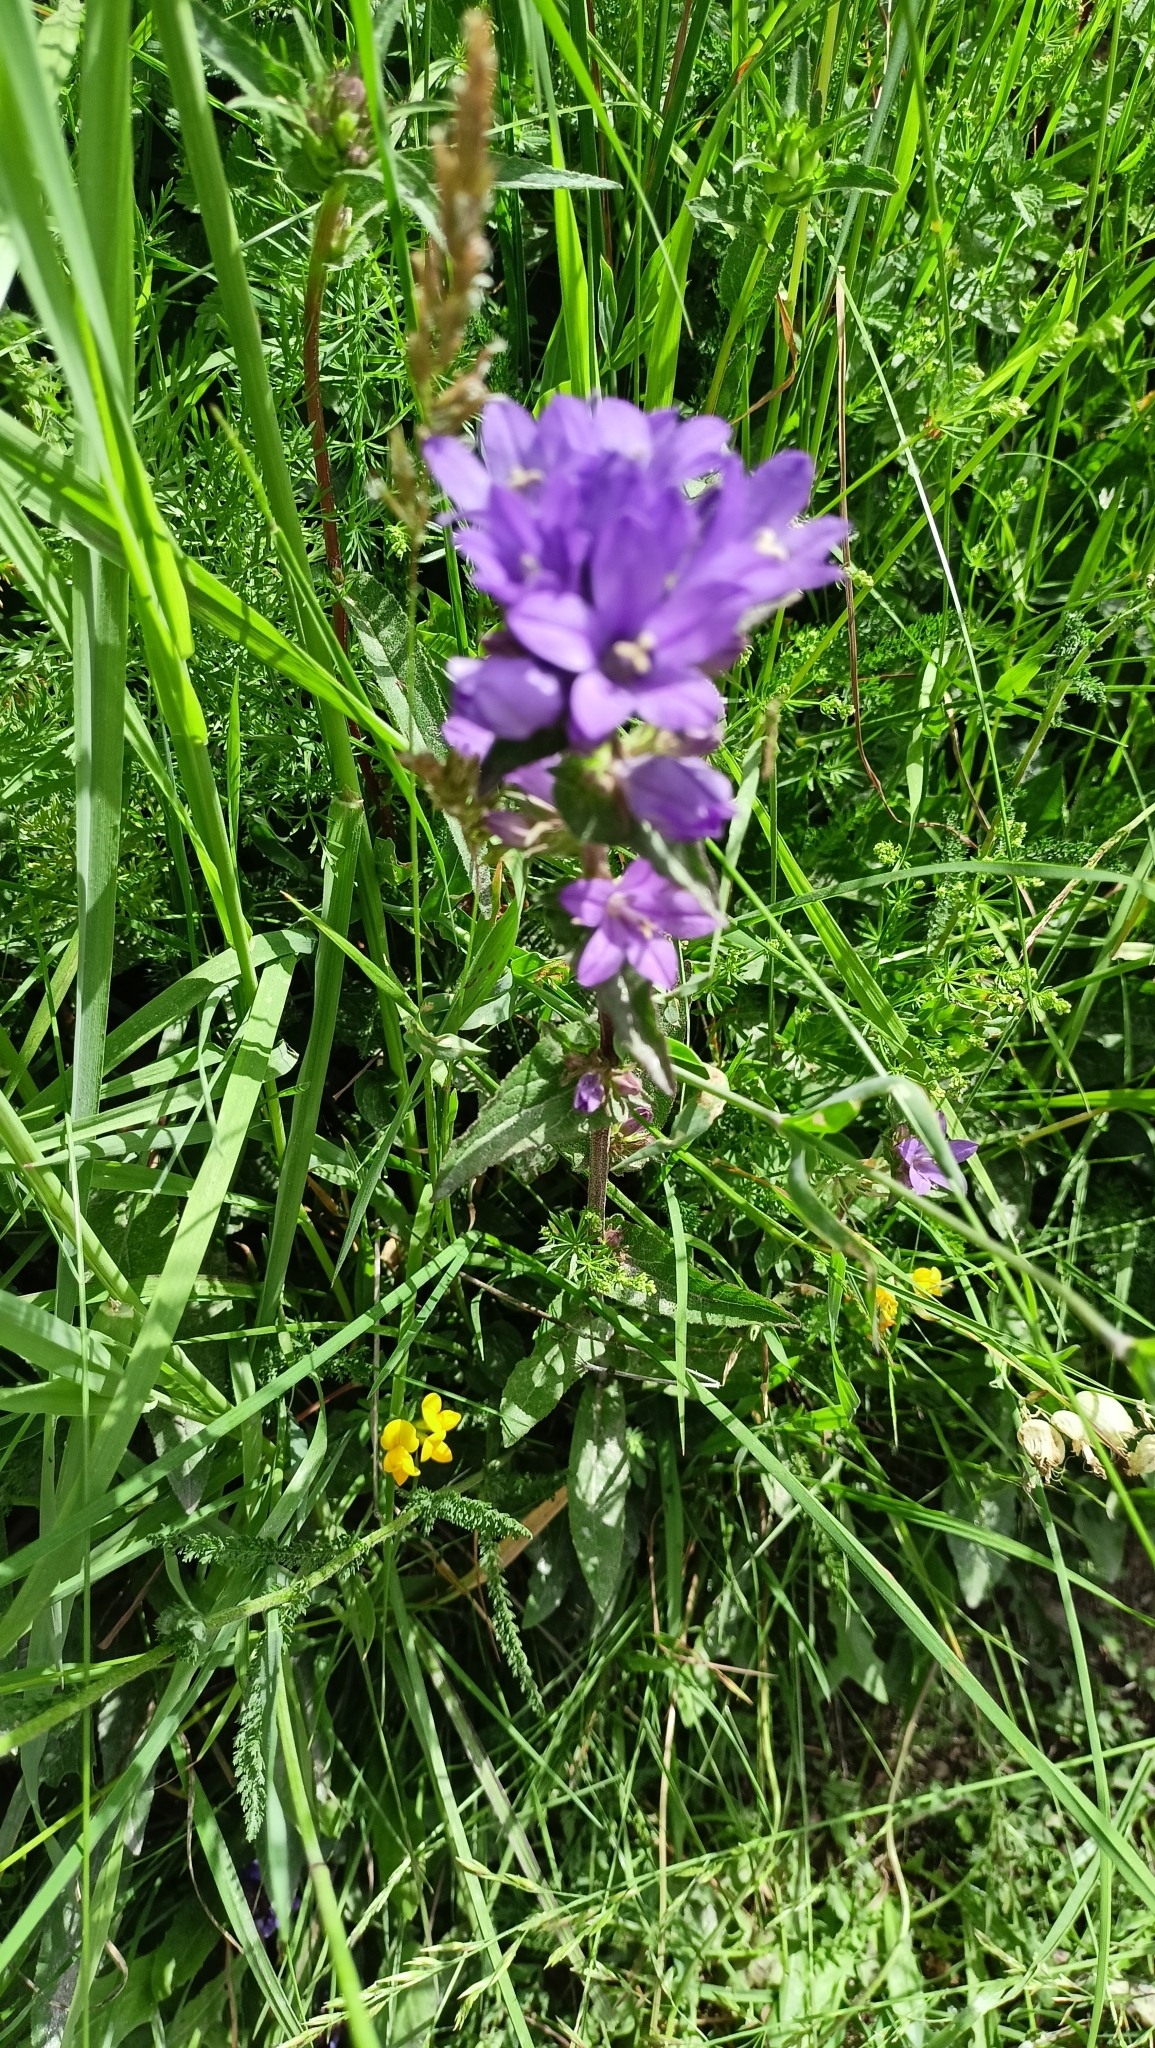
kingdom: Plantae
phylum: Tracheophyta
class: Magnoliopsida
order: Asterales
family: Campanulaceae
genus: Campanula
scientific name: Campanula glomerata
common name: Clustered bellflower
